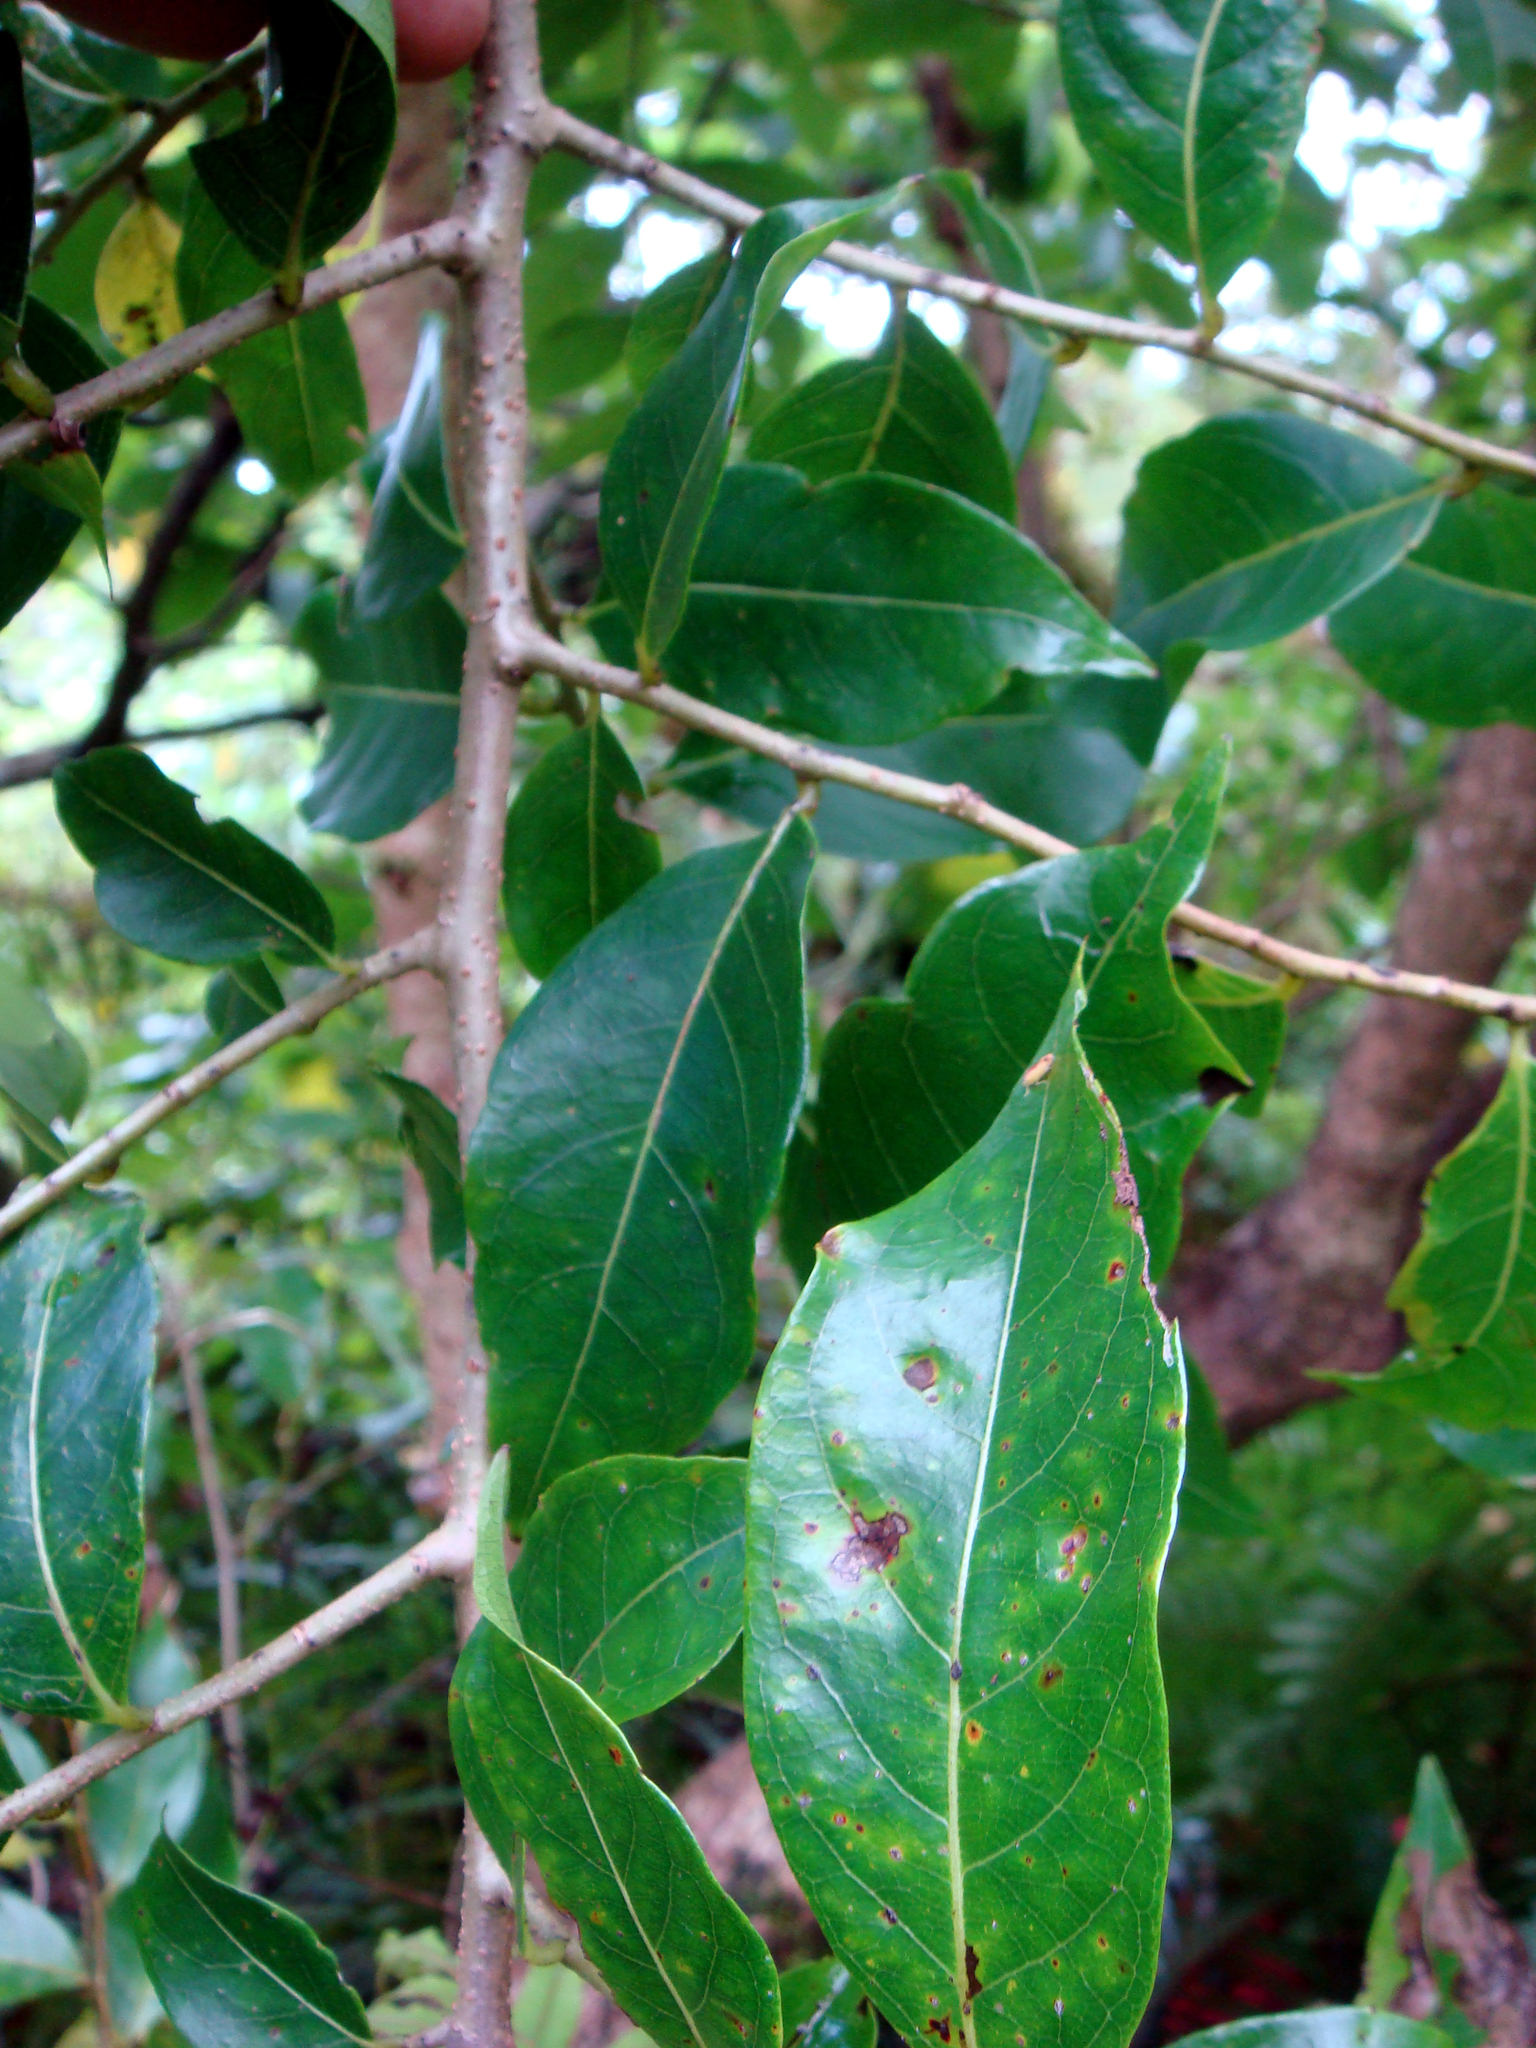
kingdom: Plantae
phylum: Tracheophyta
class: Magnoliopsida
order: Rosales
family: Cannabaceae
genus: Celtis
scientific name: Celtis paniculata
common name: Silky celtis
